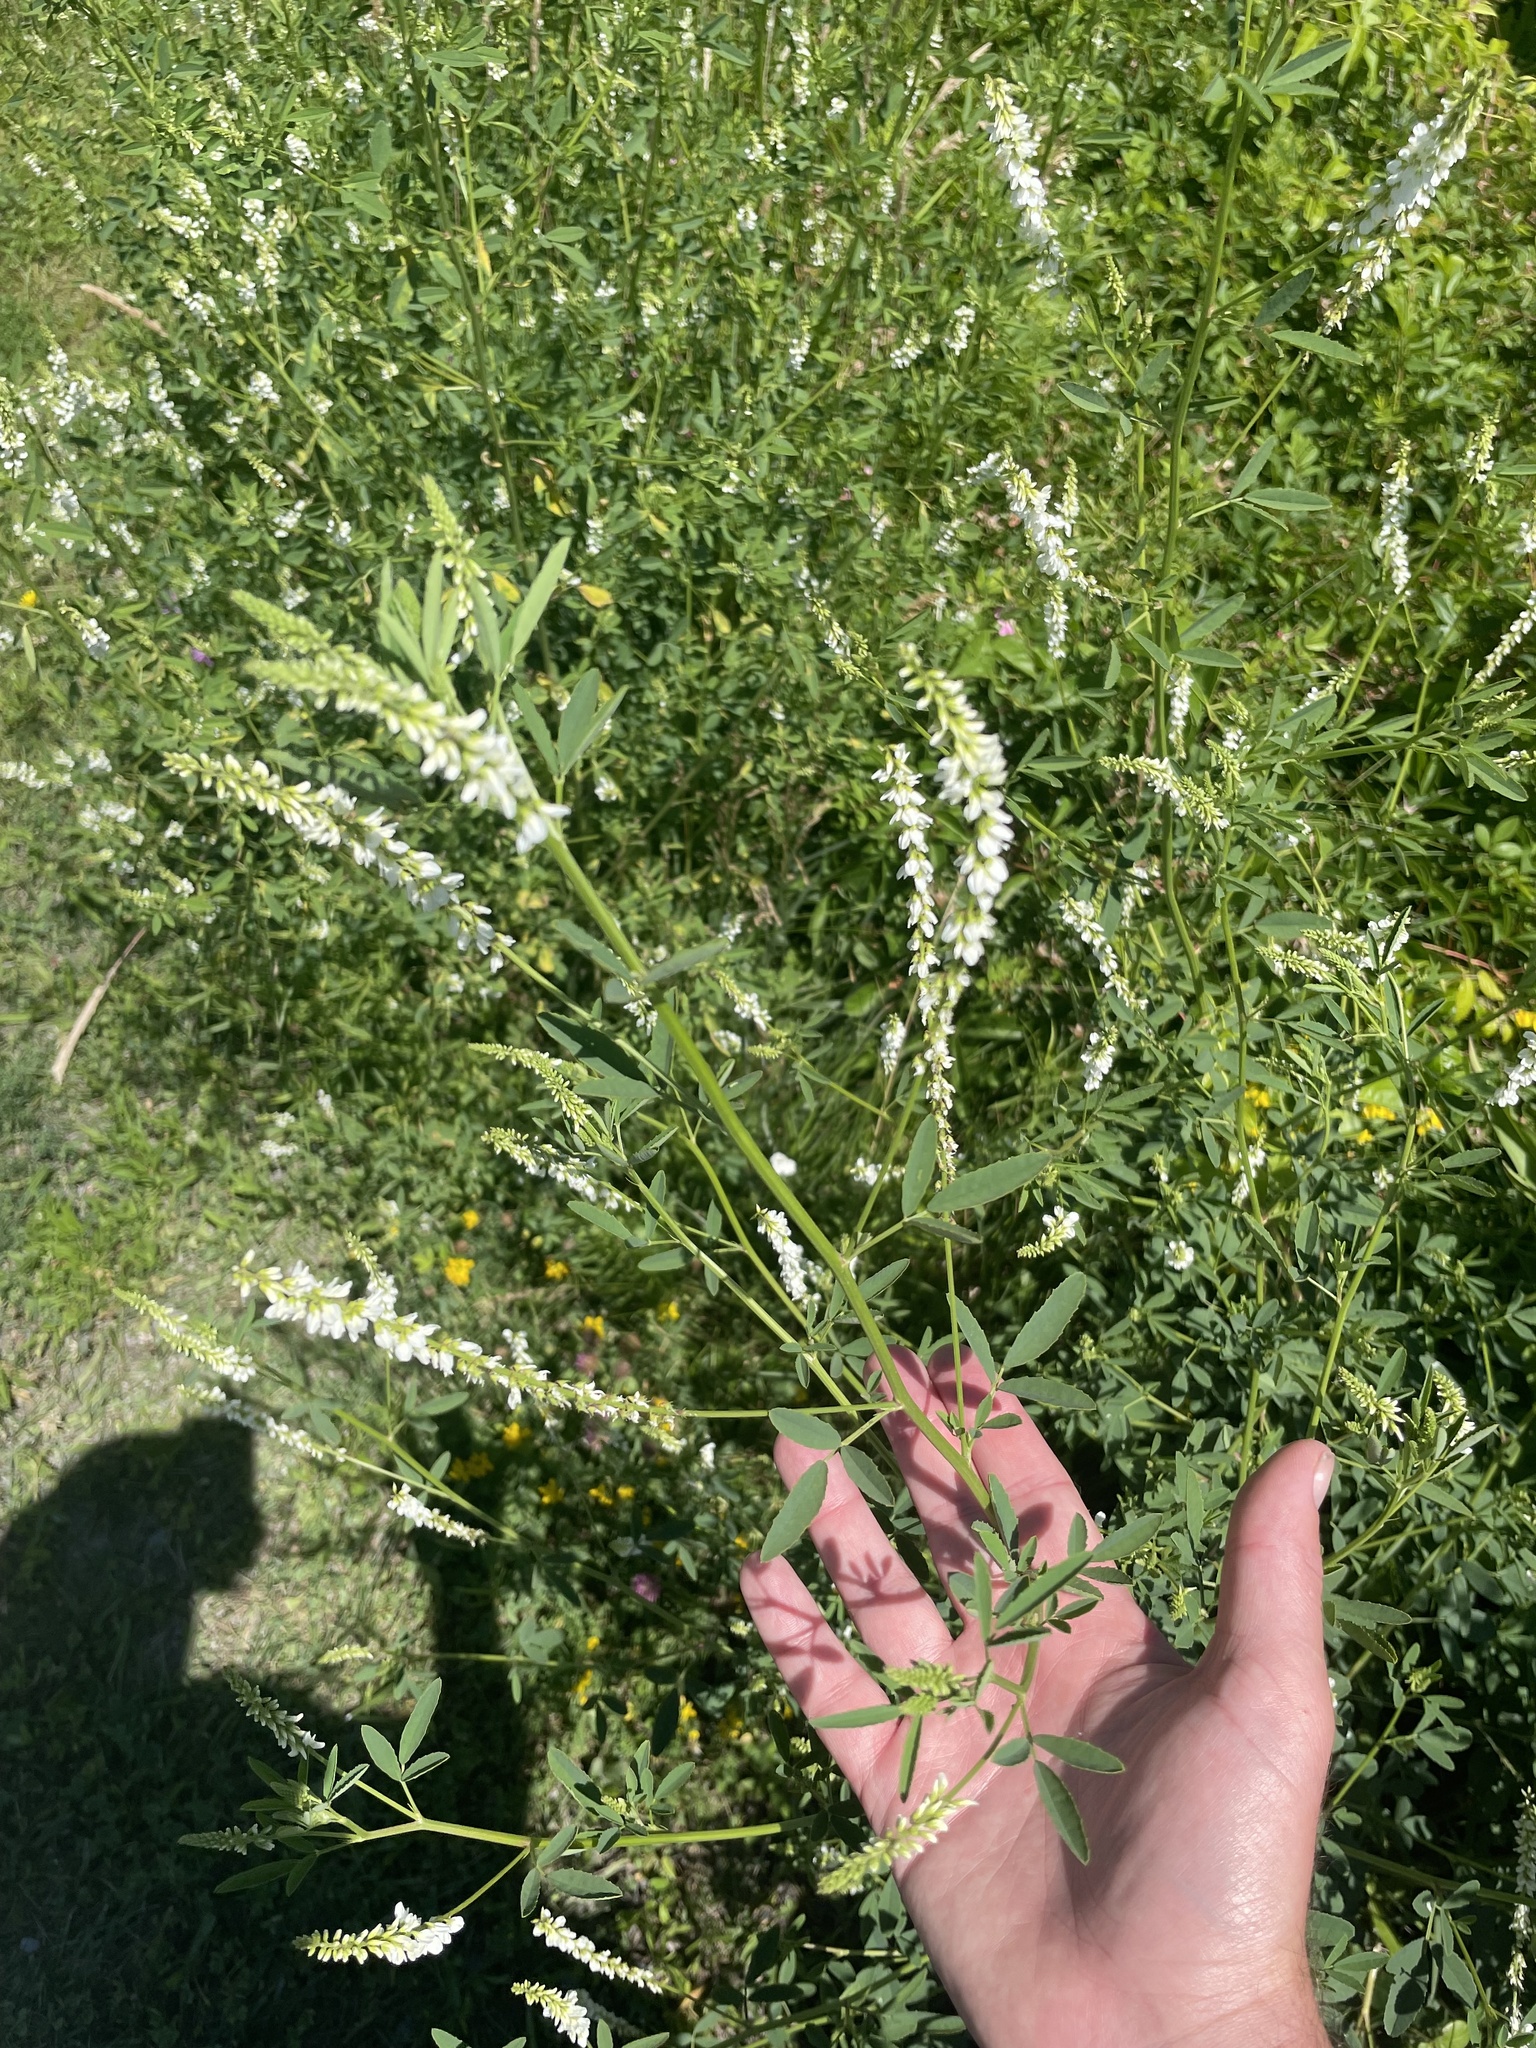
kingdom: Plantae
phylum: Tracheophyta
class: Magnoliopsida
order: Fabales
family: Fabaceae
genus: Melilotus
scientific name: Melilotus albus
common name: White melilot
